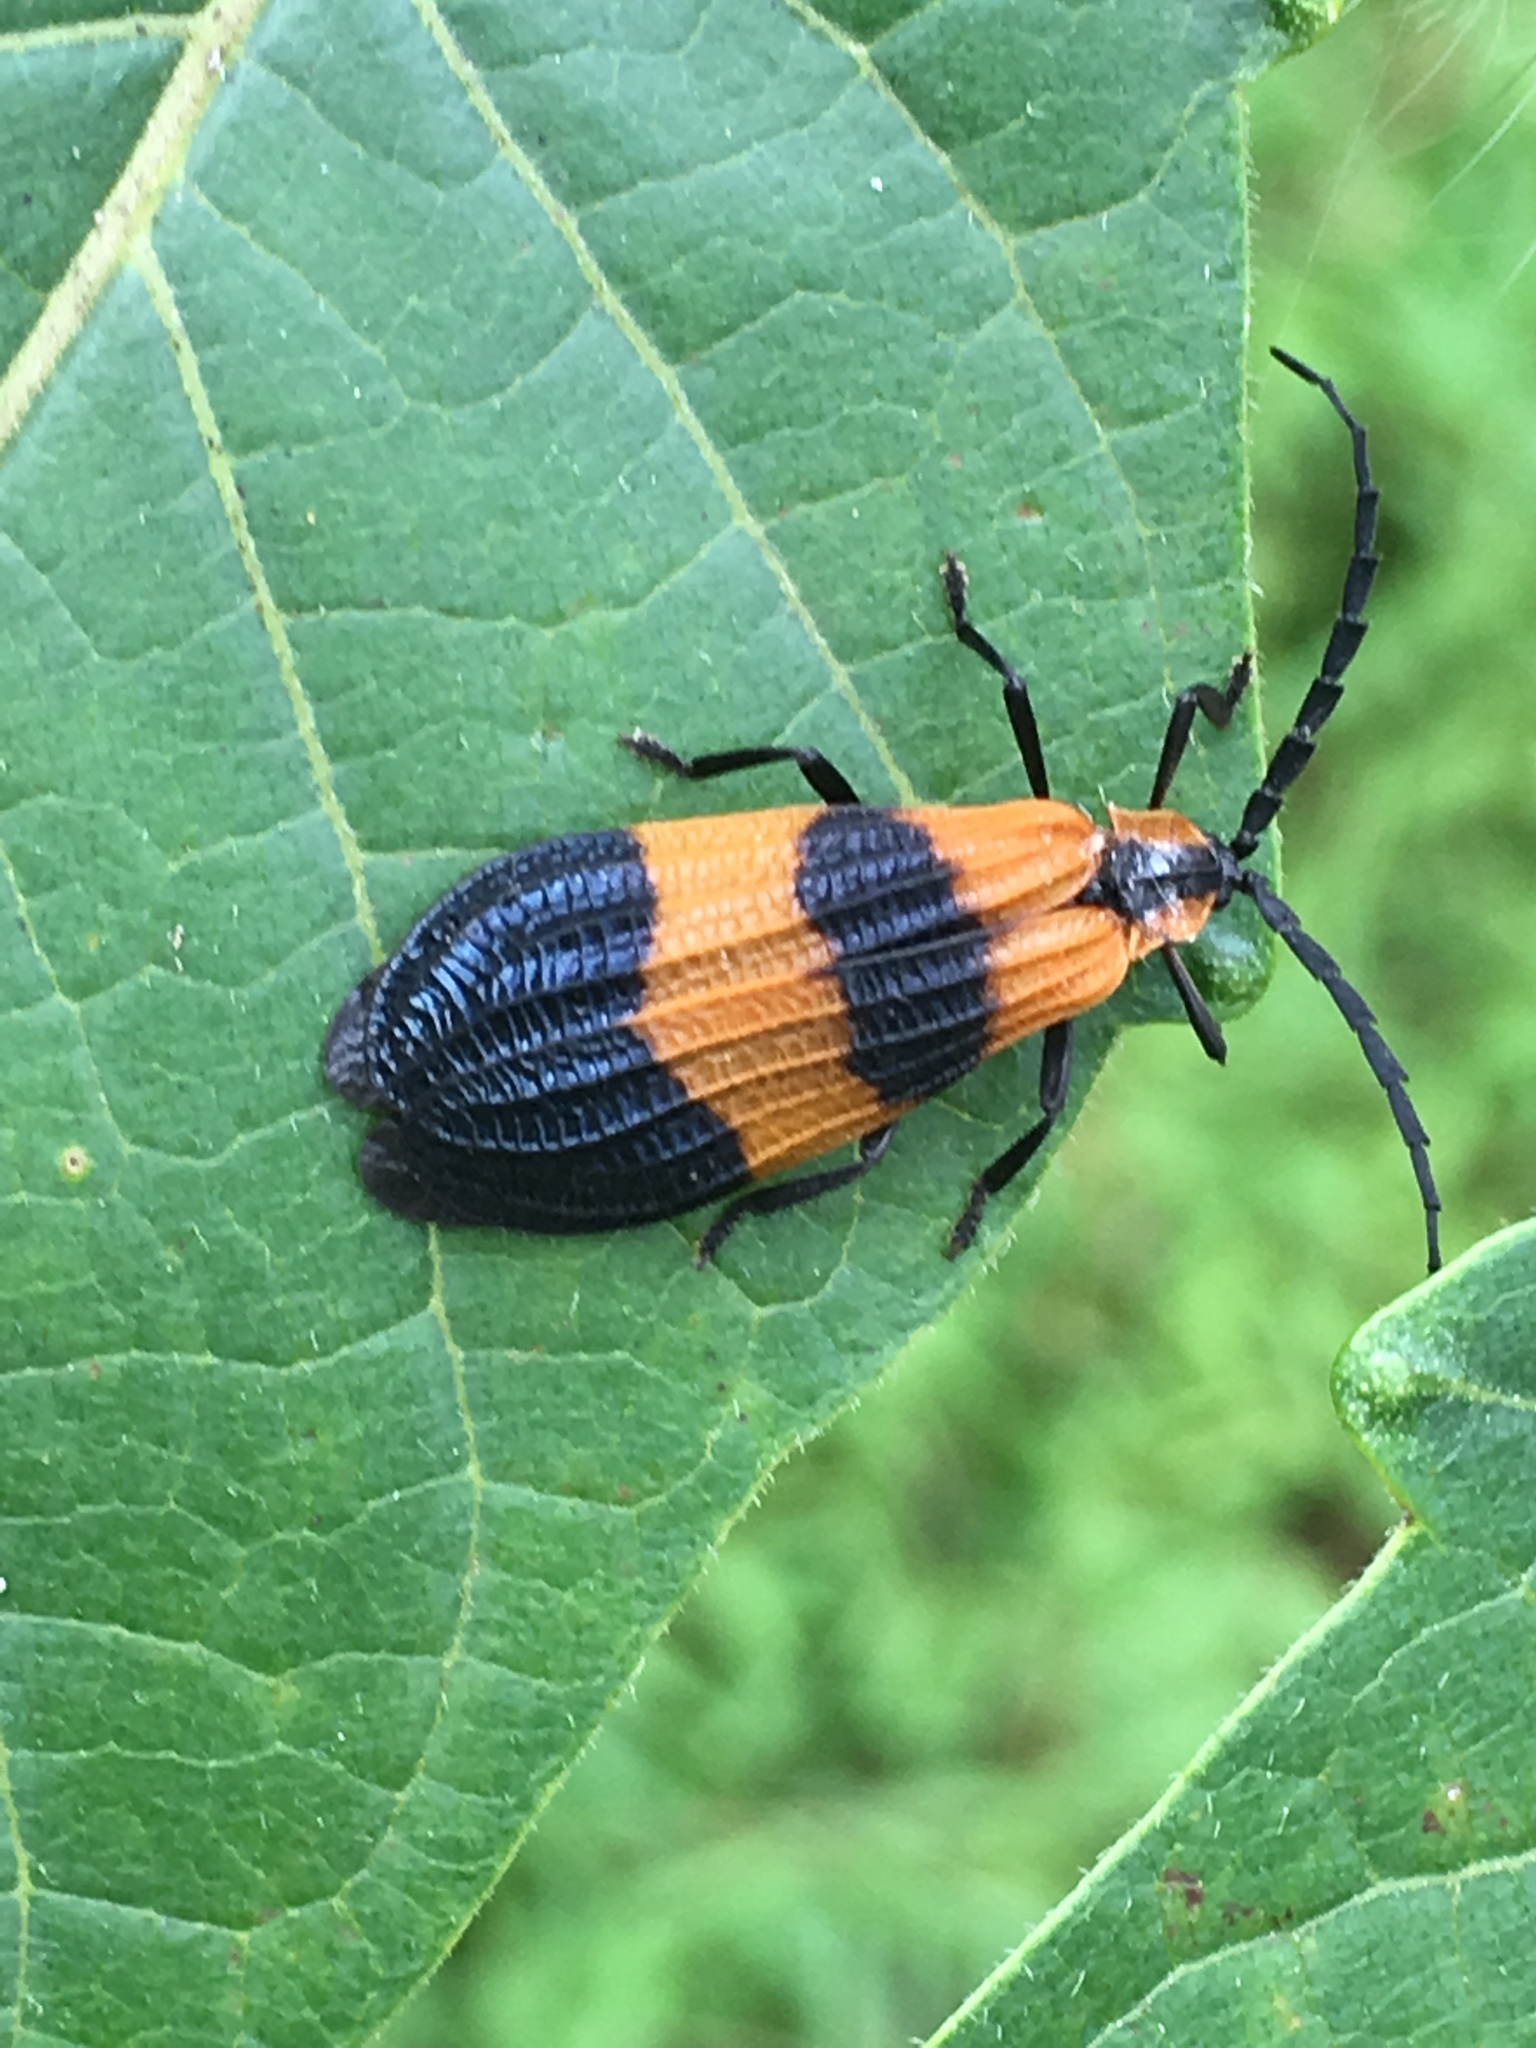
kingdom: Animalia
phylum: Arthropoda
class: Insecta
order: Coleoptera
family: Lycidae
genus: Calopteron
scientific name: Calopteron terminale
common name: End band net-winged beetle
